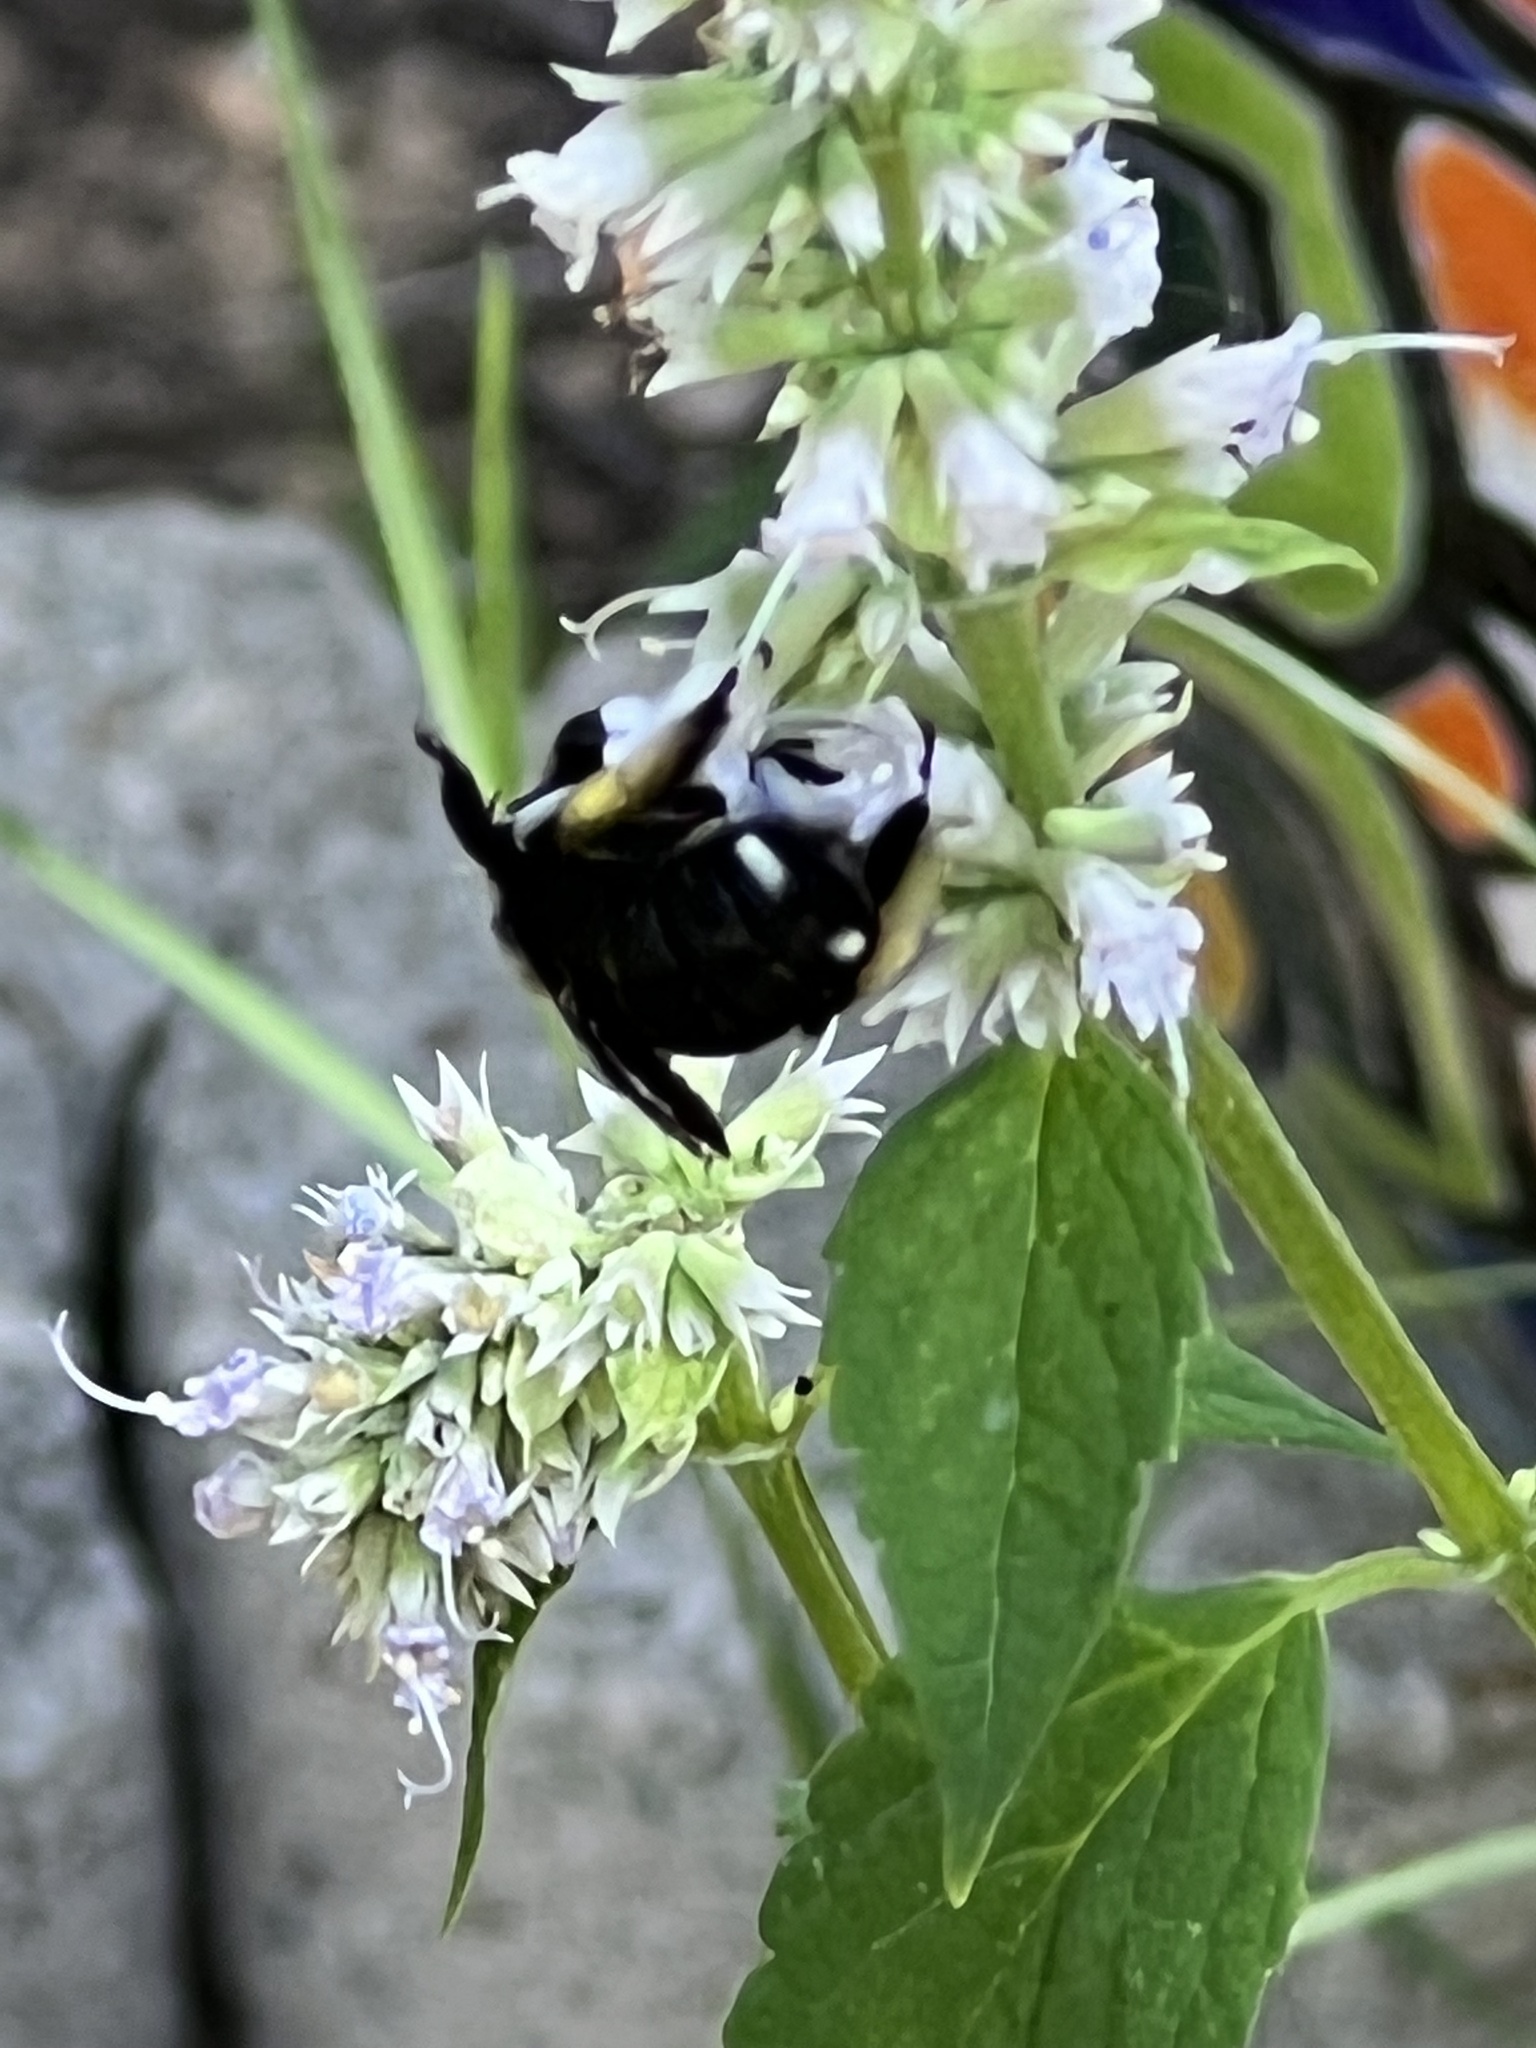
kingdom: Animalia
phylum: Arthropoda
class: Insecta
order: Hymenoptera
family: Apidae
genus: Melissodes
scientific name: Melissodes bimaculatus
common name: Two-spotted long-horned bee
